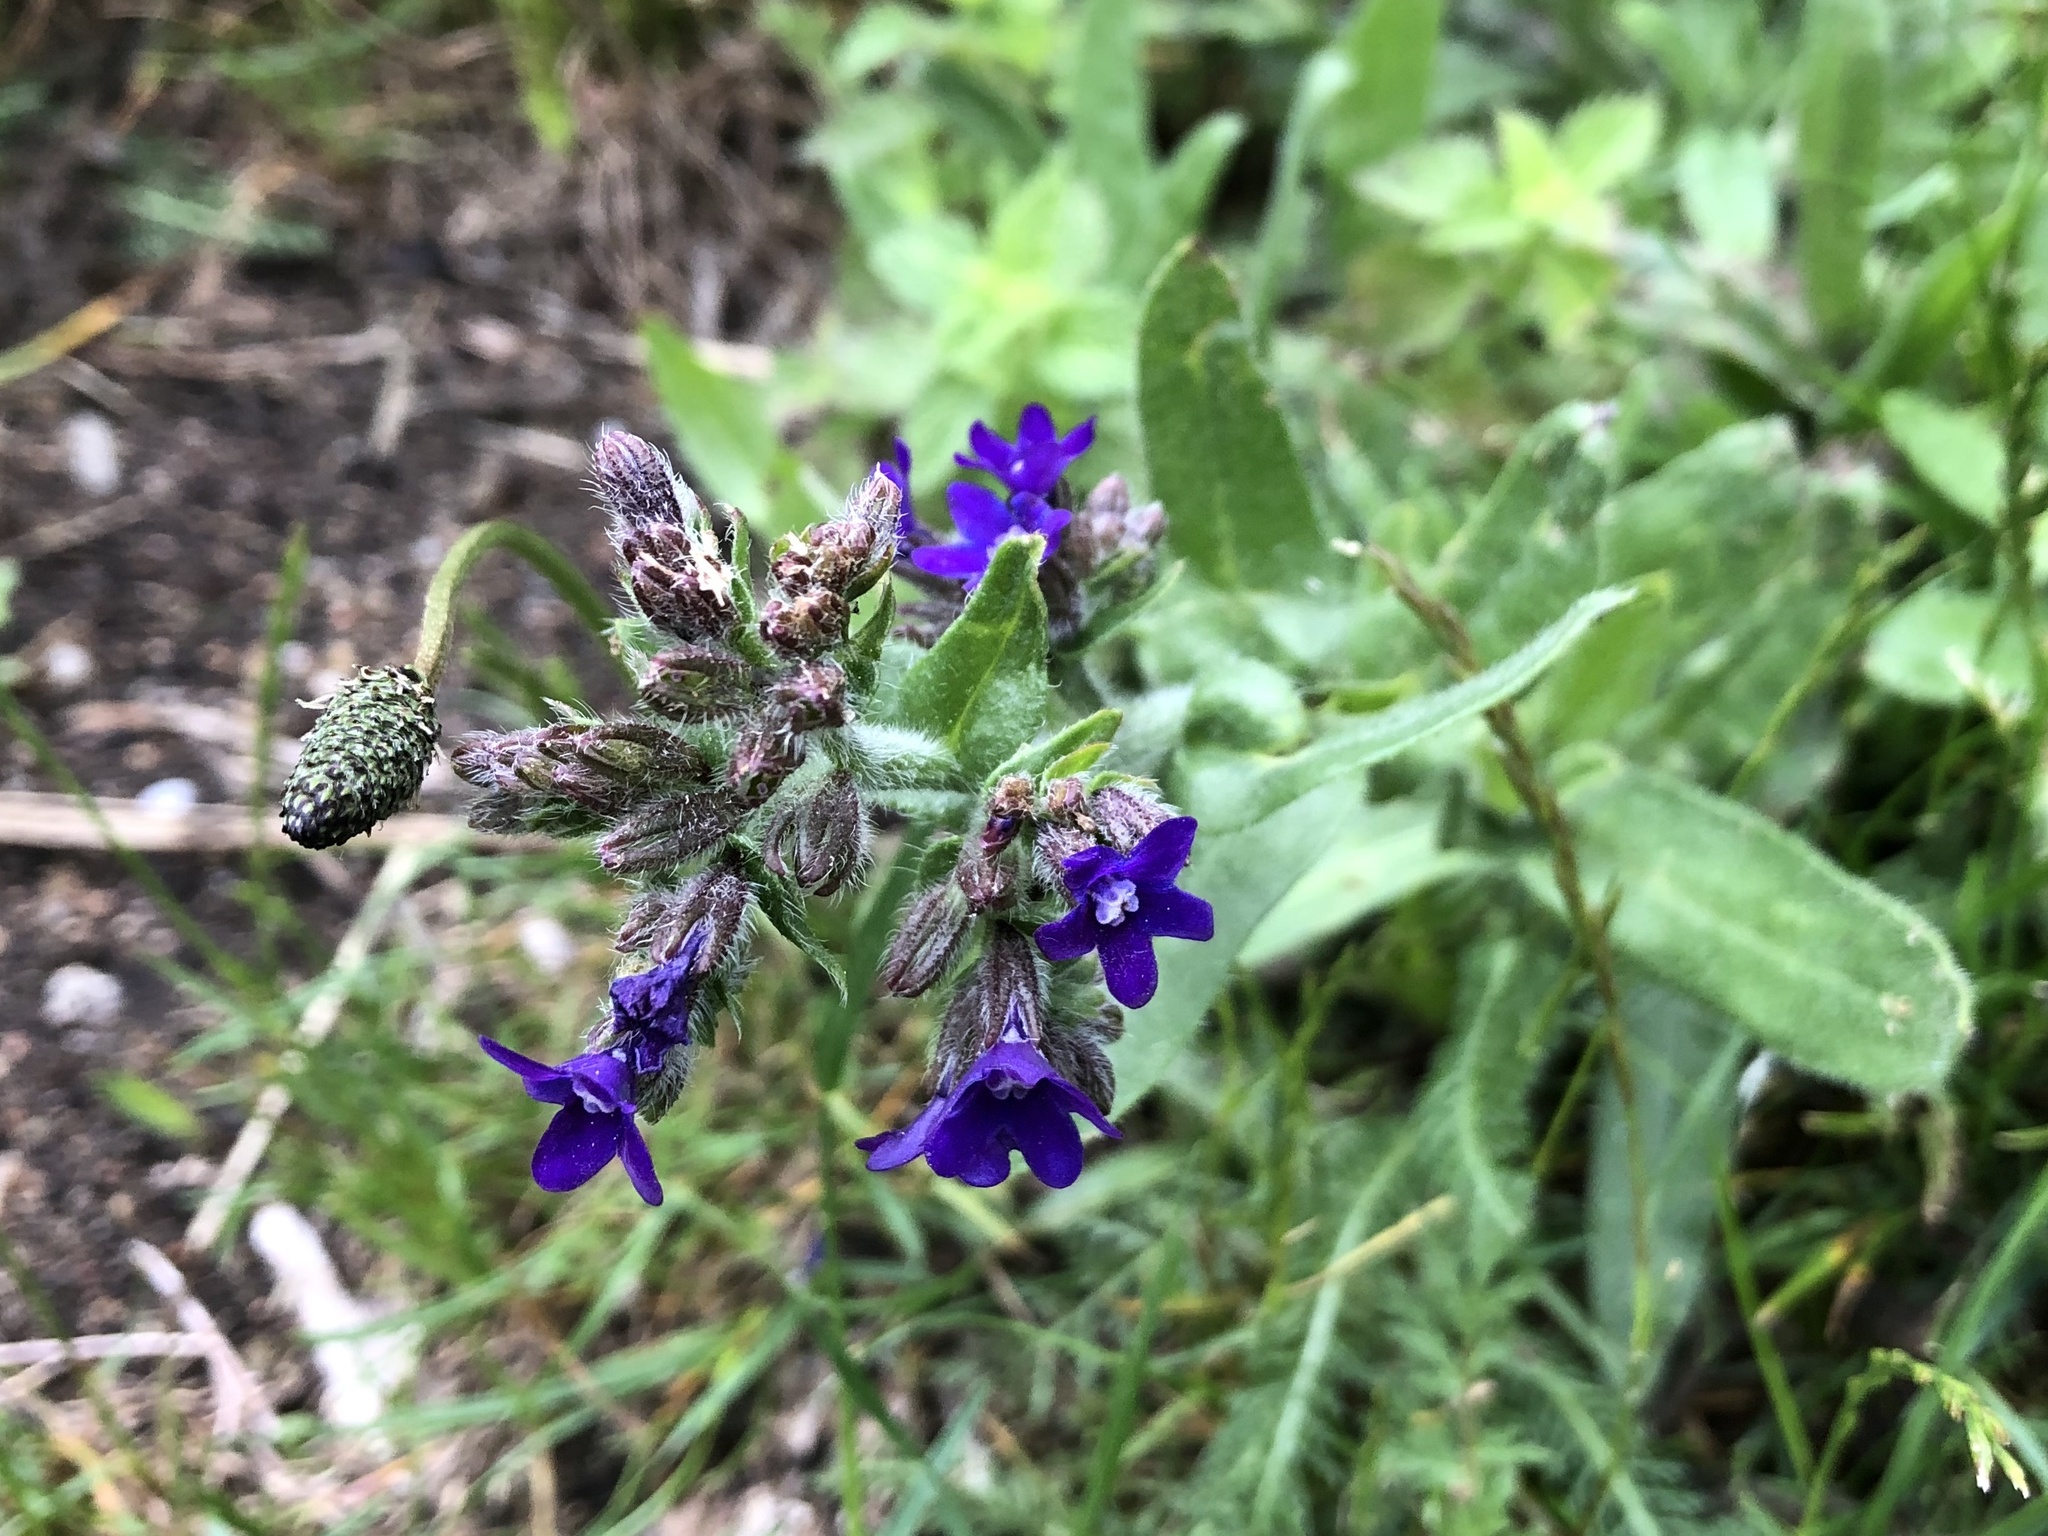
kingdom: Plantae
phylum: Tracheophyta
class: Magnoliopsida
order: Boraginales
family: Boraginaceae
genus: Anchusa
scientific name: Anchusa officinalis
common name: Alkanet
